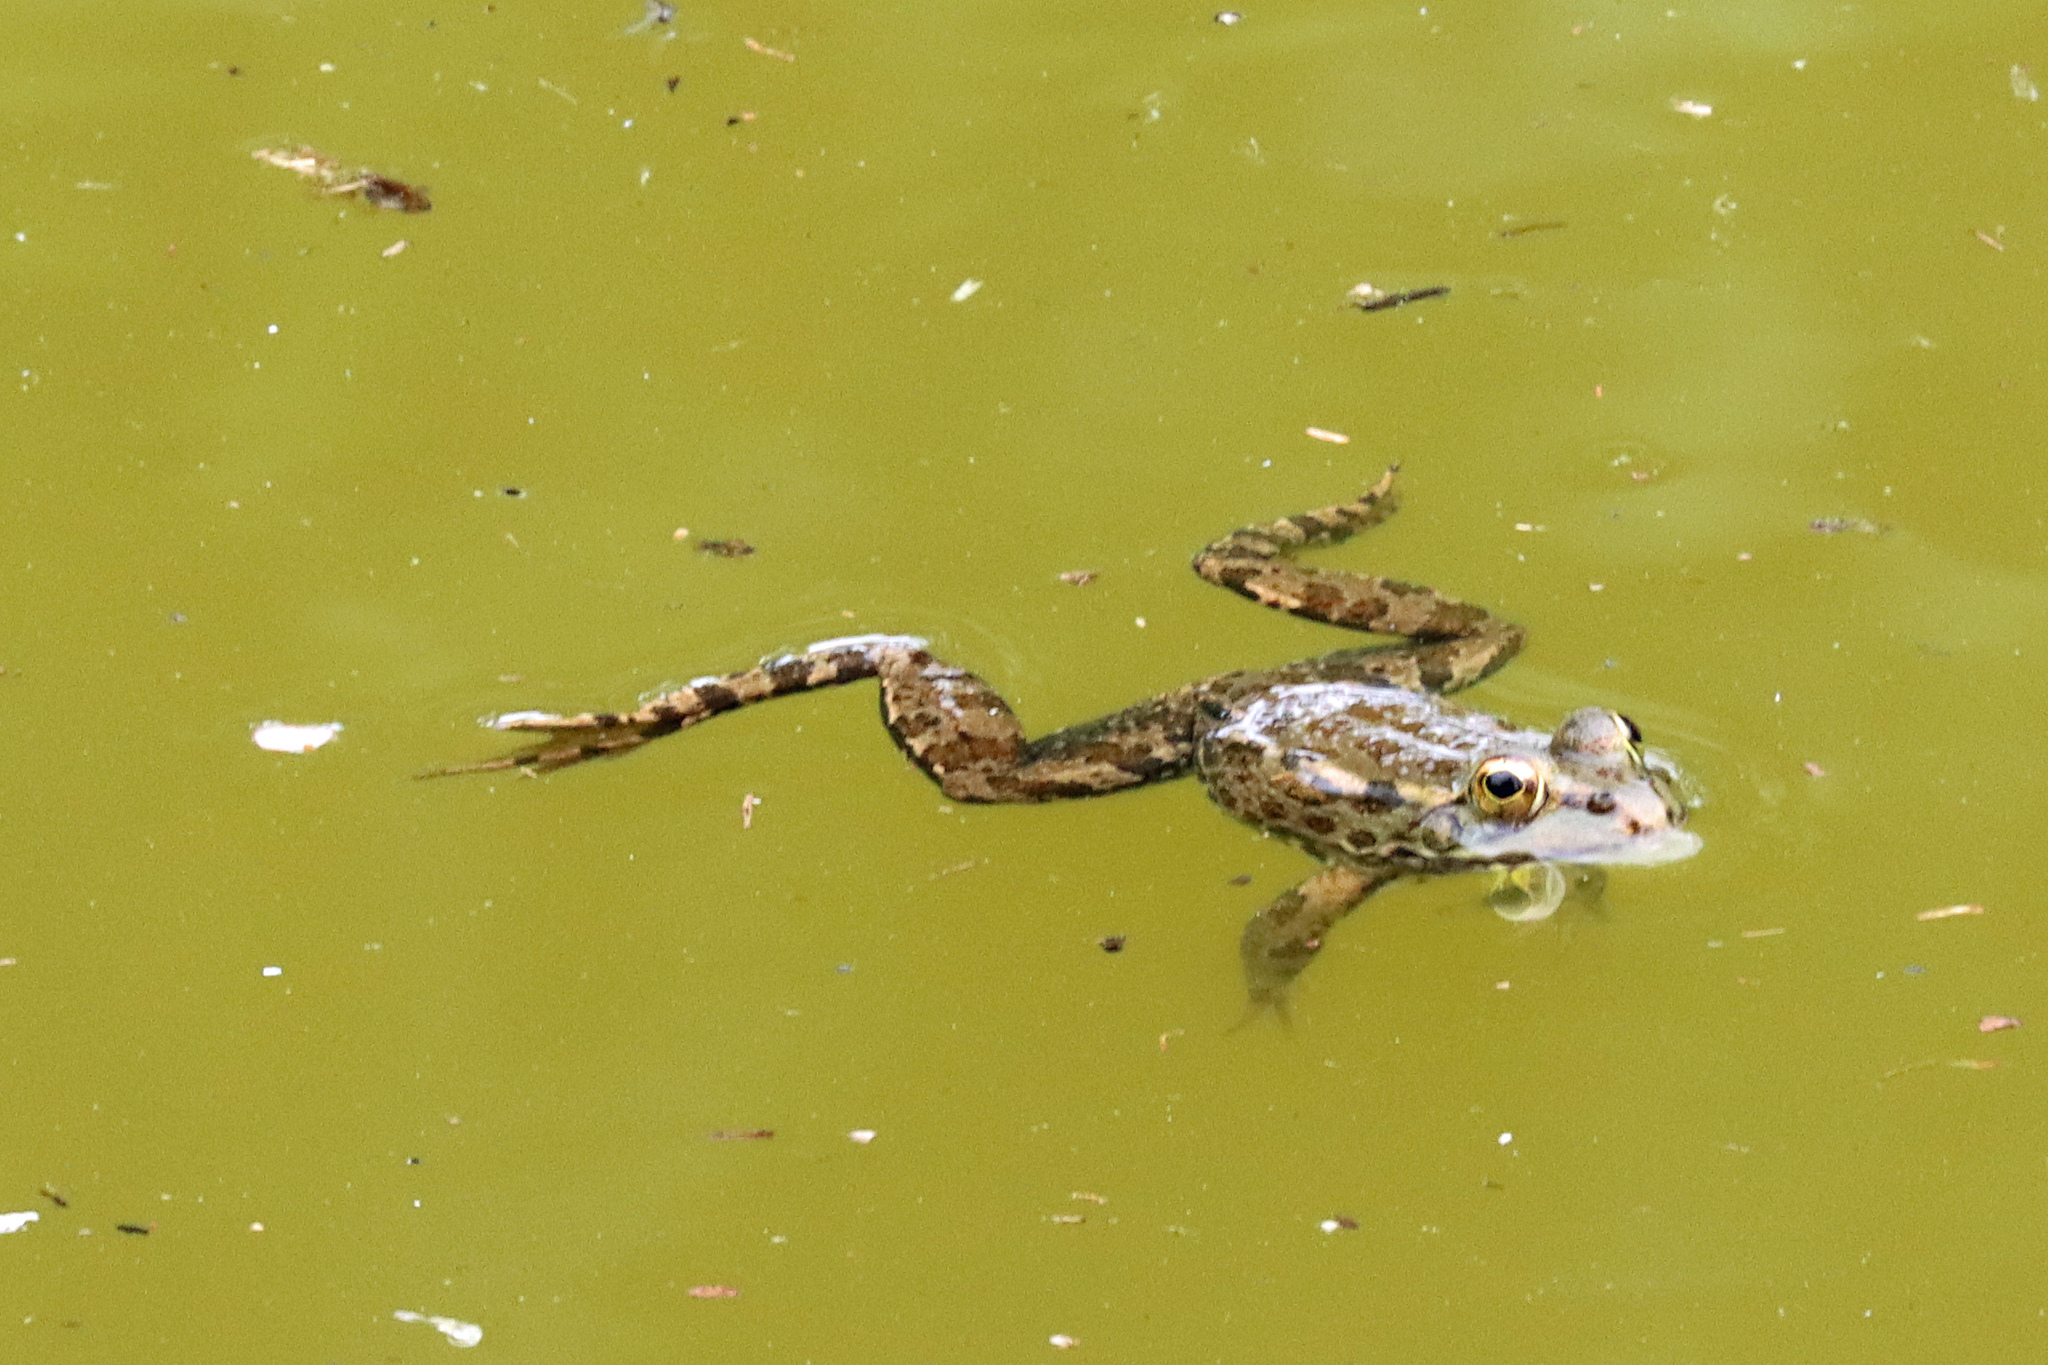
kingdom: Animalia
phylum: Chordata
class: Amphibia
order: Anura
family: Ranidae
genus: Pelophylax
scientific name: Pelophylax perezi
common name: Perez's frog
